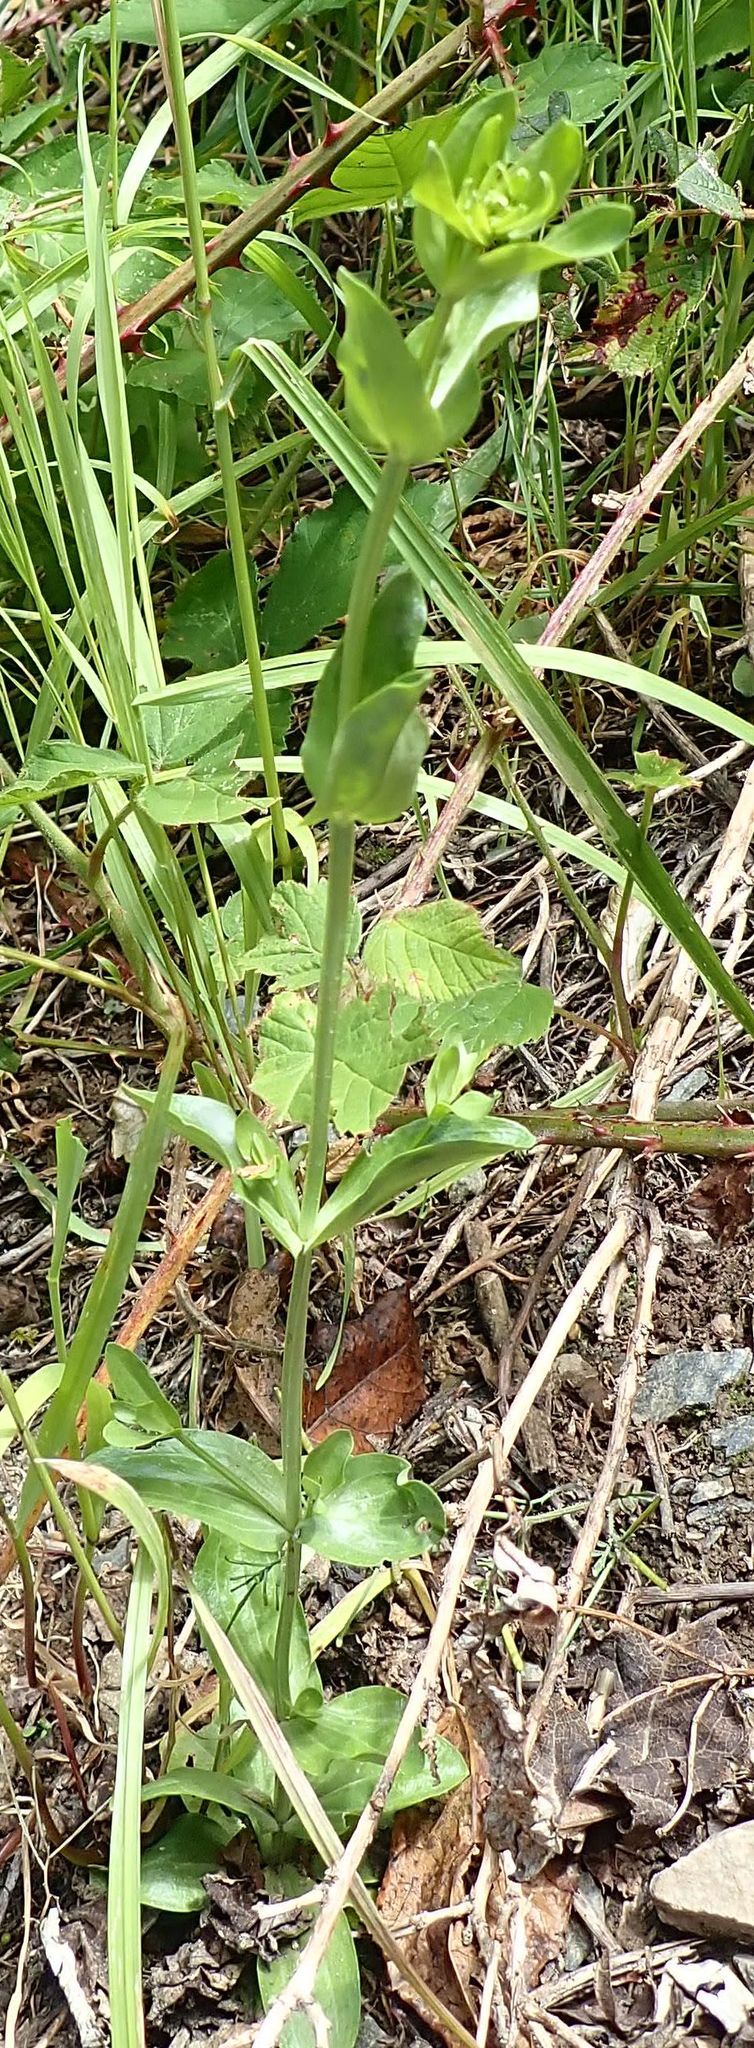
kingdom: Plantae
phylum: Tracheophyta
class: Magnoliopsida
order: Gentianales
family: Gentianaceae
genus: Centaurium
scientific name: Centaurium erythraea
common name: Common centaury
